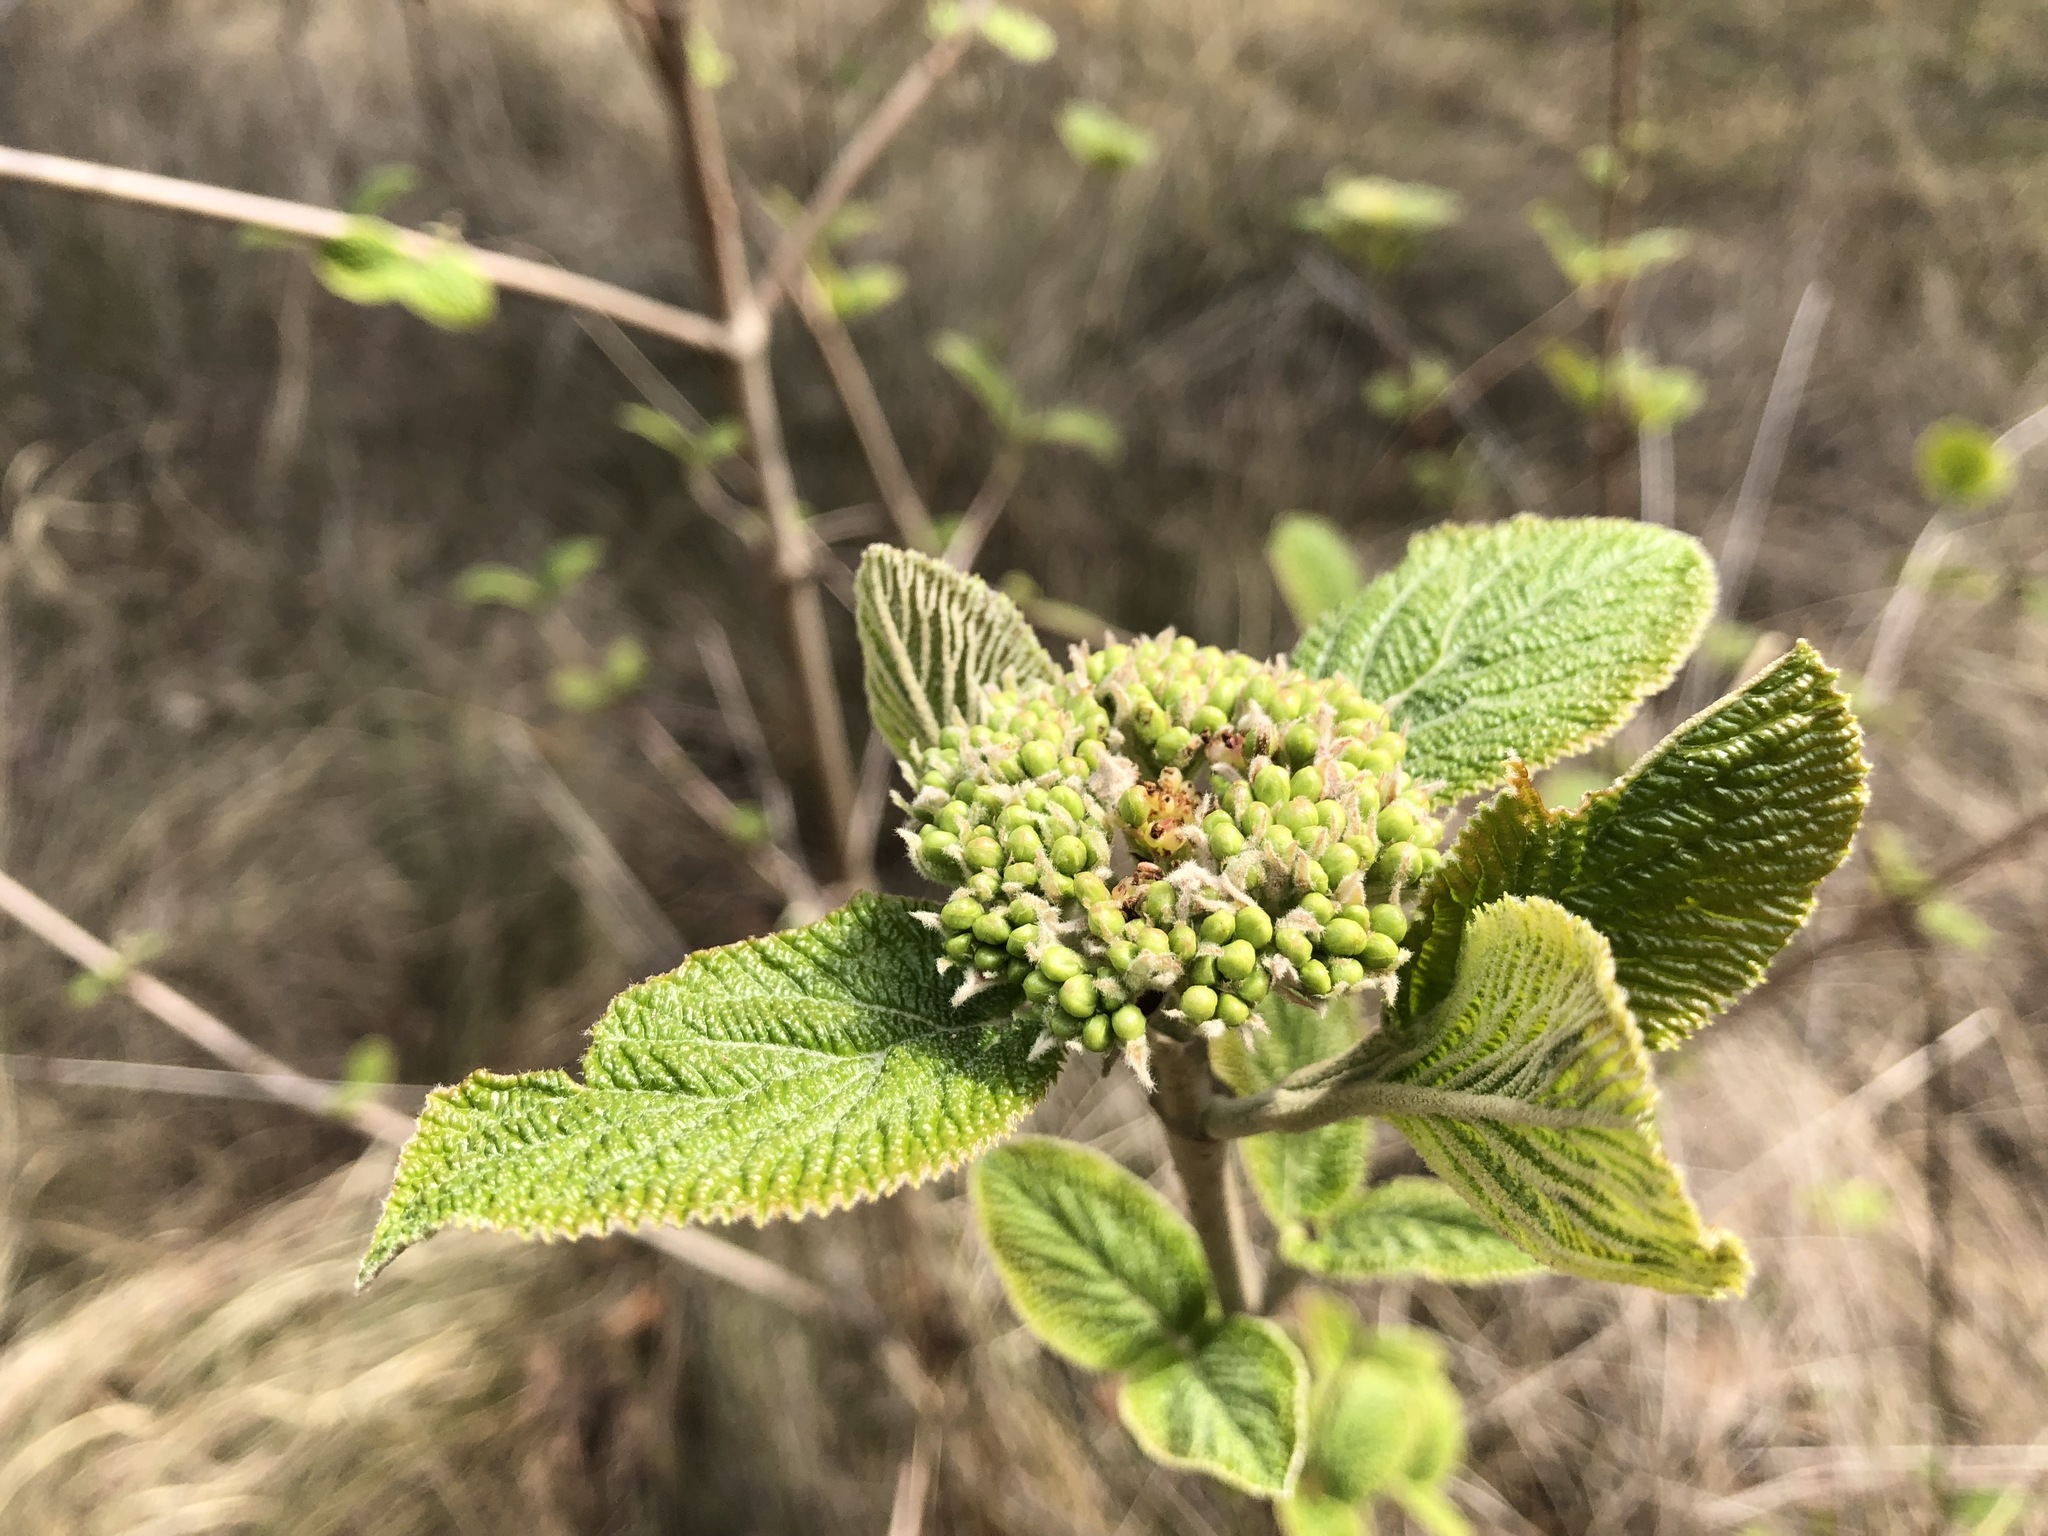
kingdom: Plantae
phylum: Tracheophyta
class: Magnoliopsida
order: Dipsacales
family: Viburnaceae
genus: Viburnum
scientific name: Viburnum lantana
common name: Wayfaring tree
